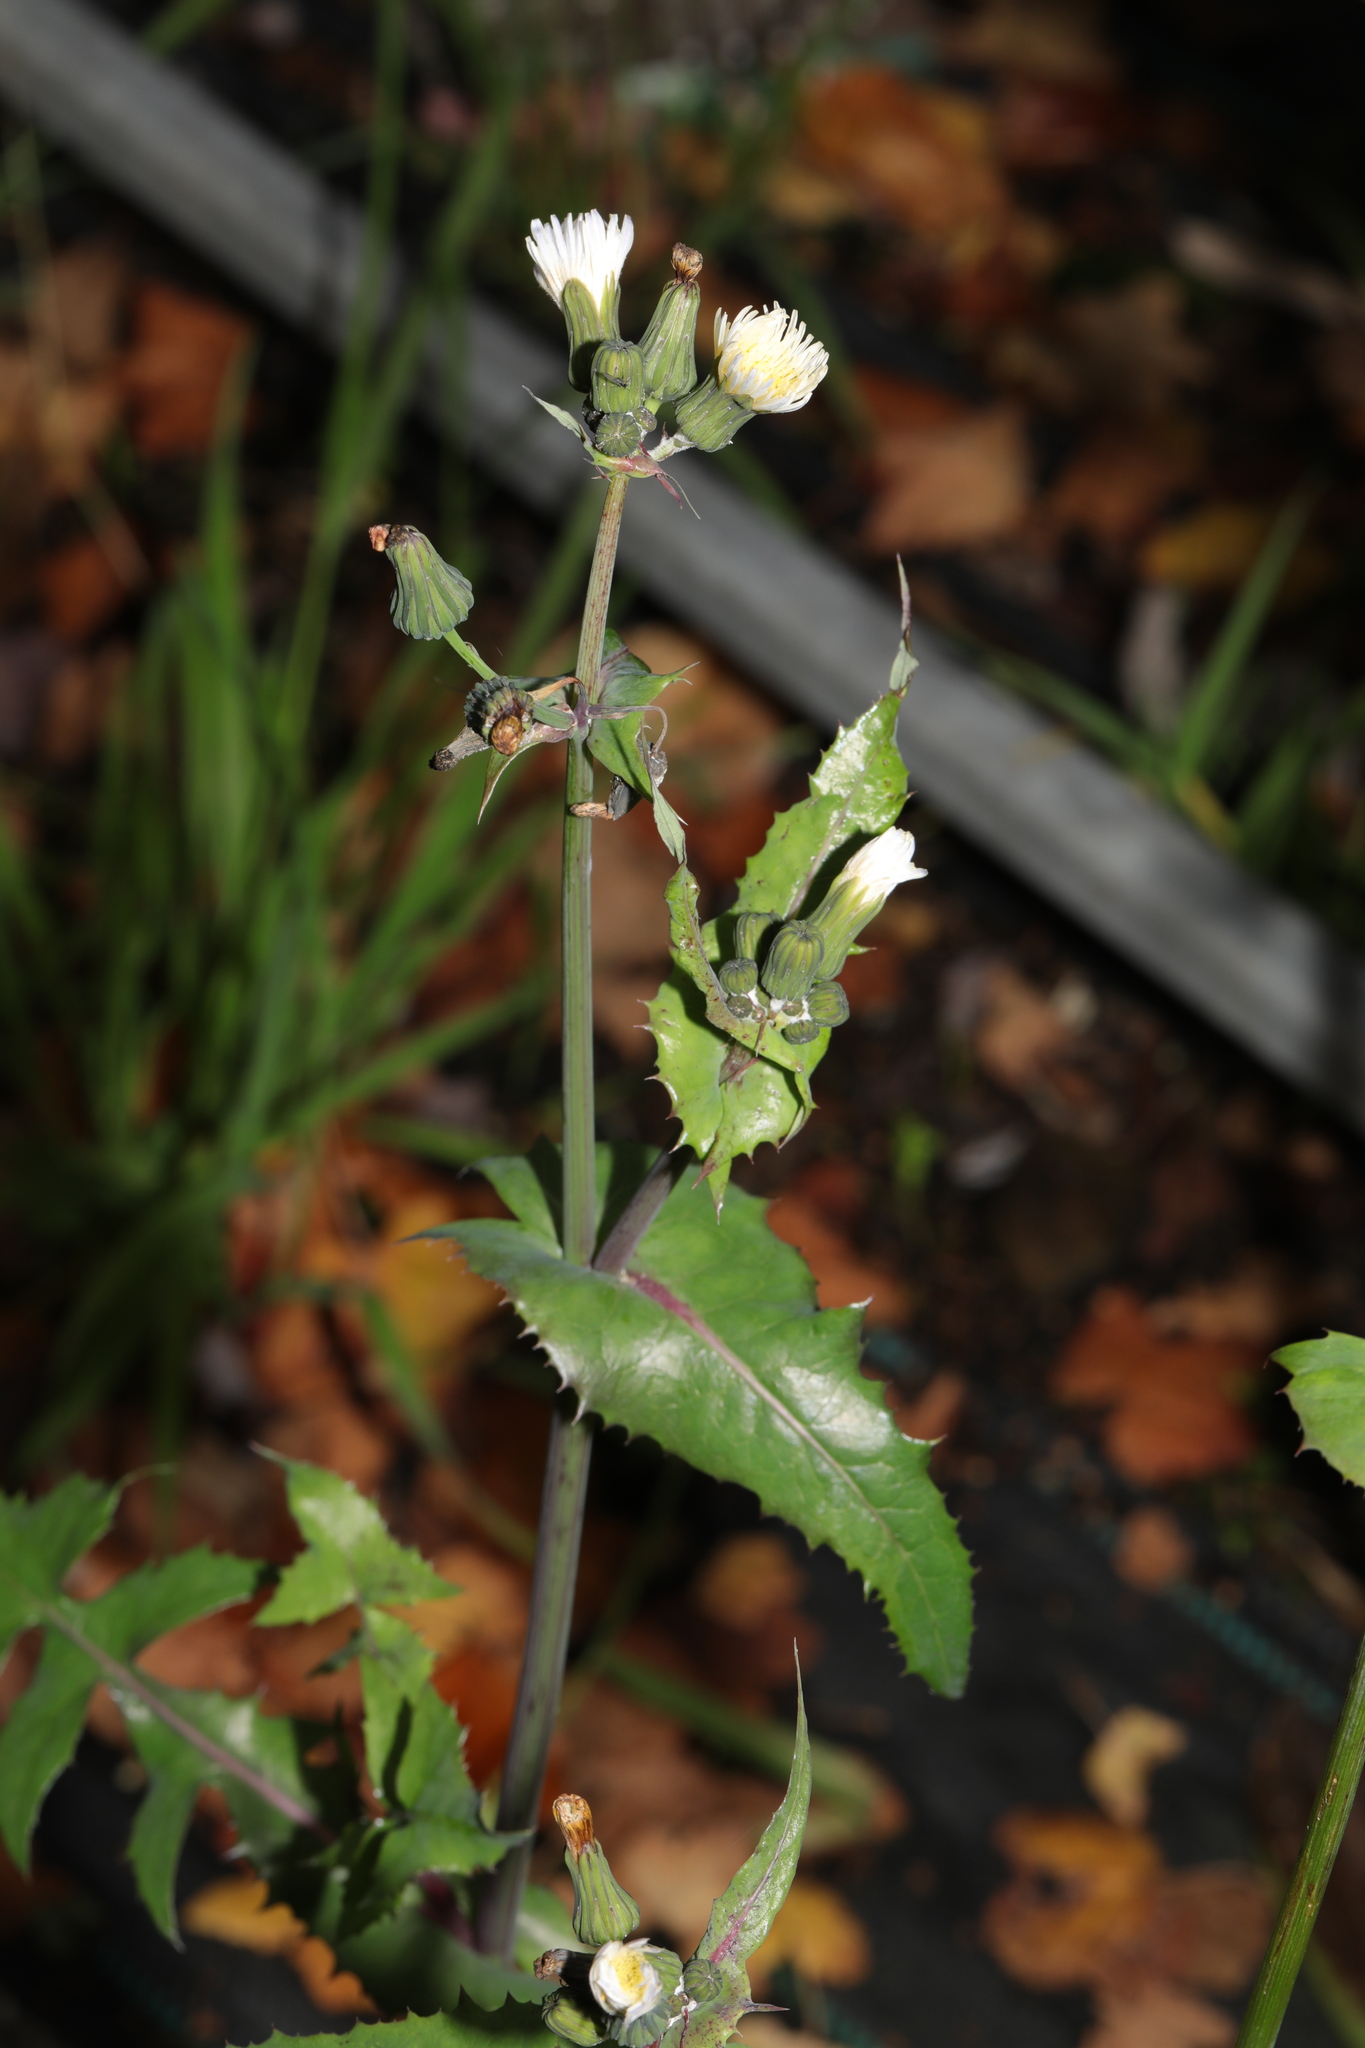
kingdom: Plantae
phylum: Tracheophyta
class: Magnoliopsida
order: Asterales
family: Asteraceae
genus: Sonchus
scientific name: Sonchus oleraceus
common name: Common sowthistle
